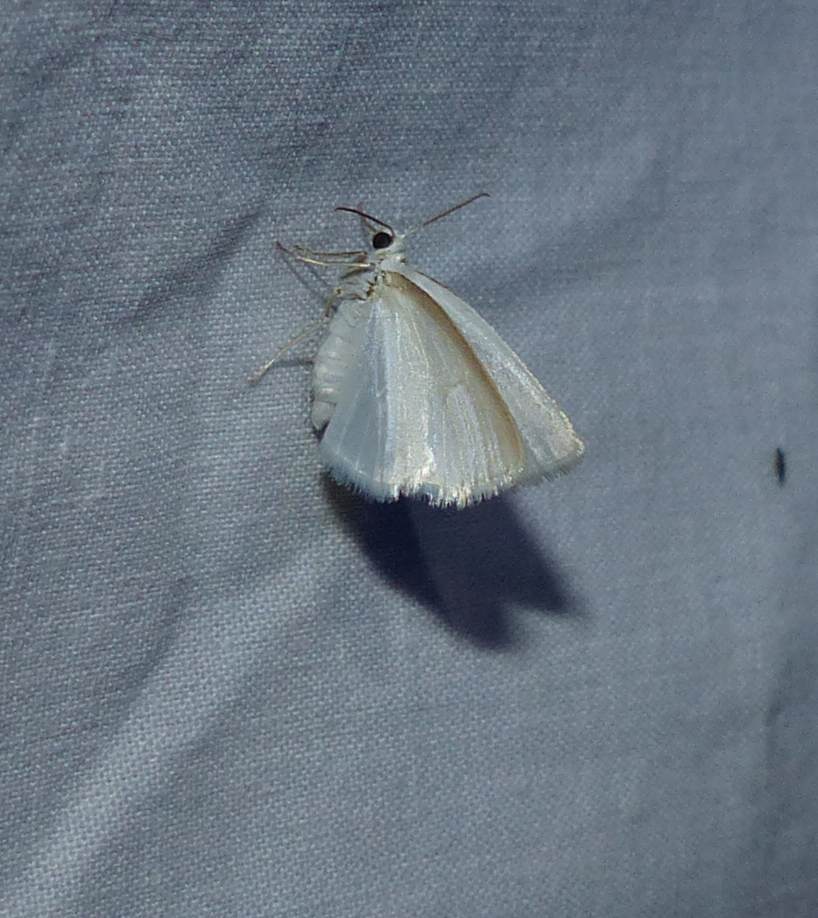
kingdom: Animalia
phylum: Arthropoda
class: Insecta
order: Lepidoptera
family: Geometridae
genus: Lomographa
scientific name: Lomographa vestaliata
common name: White spring moth
